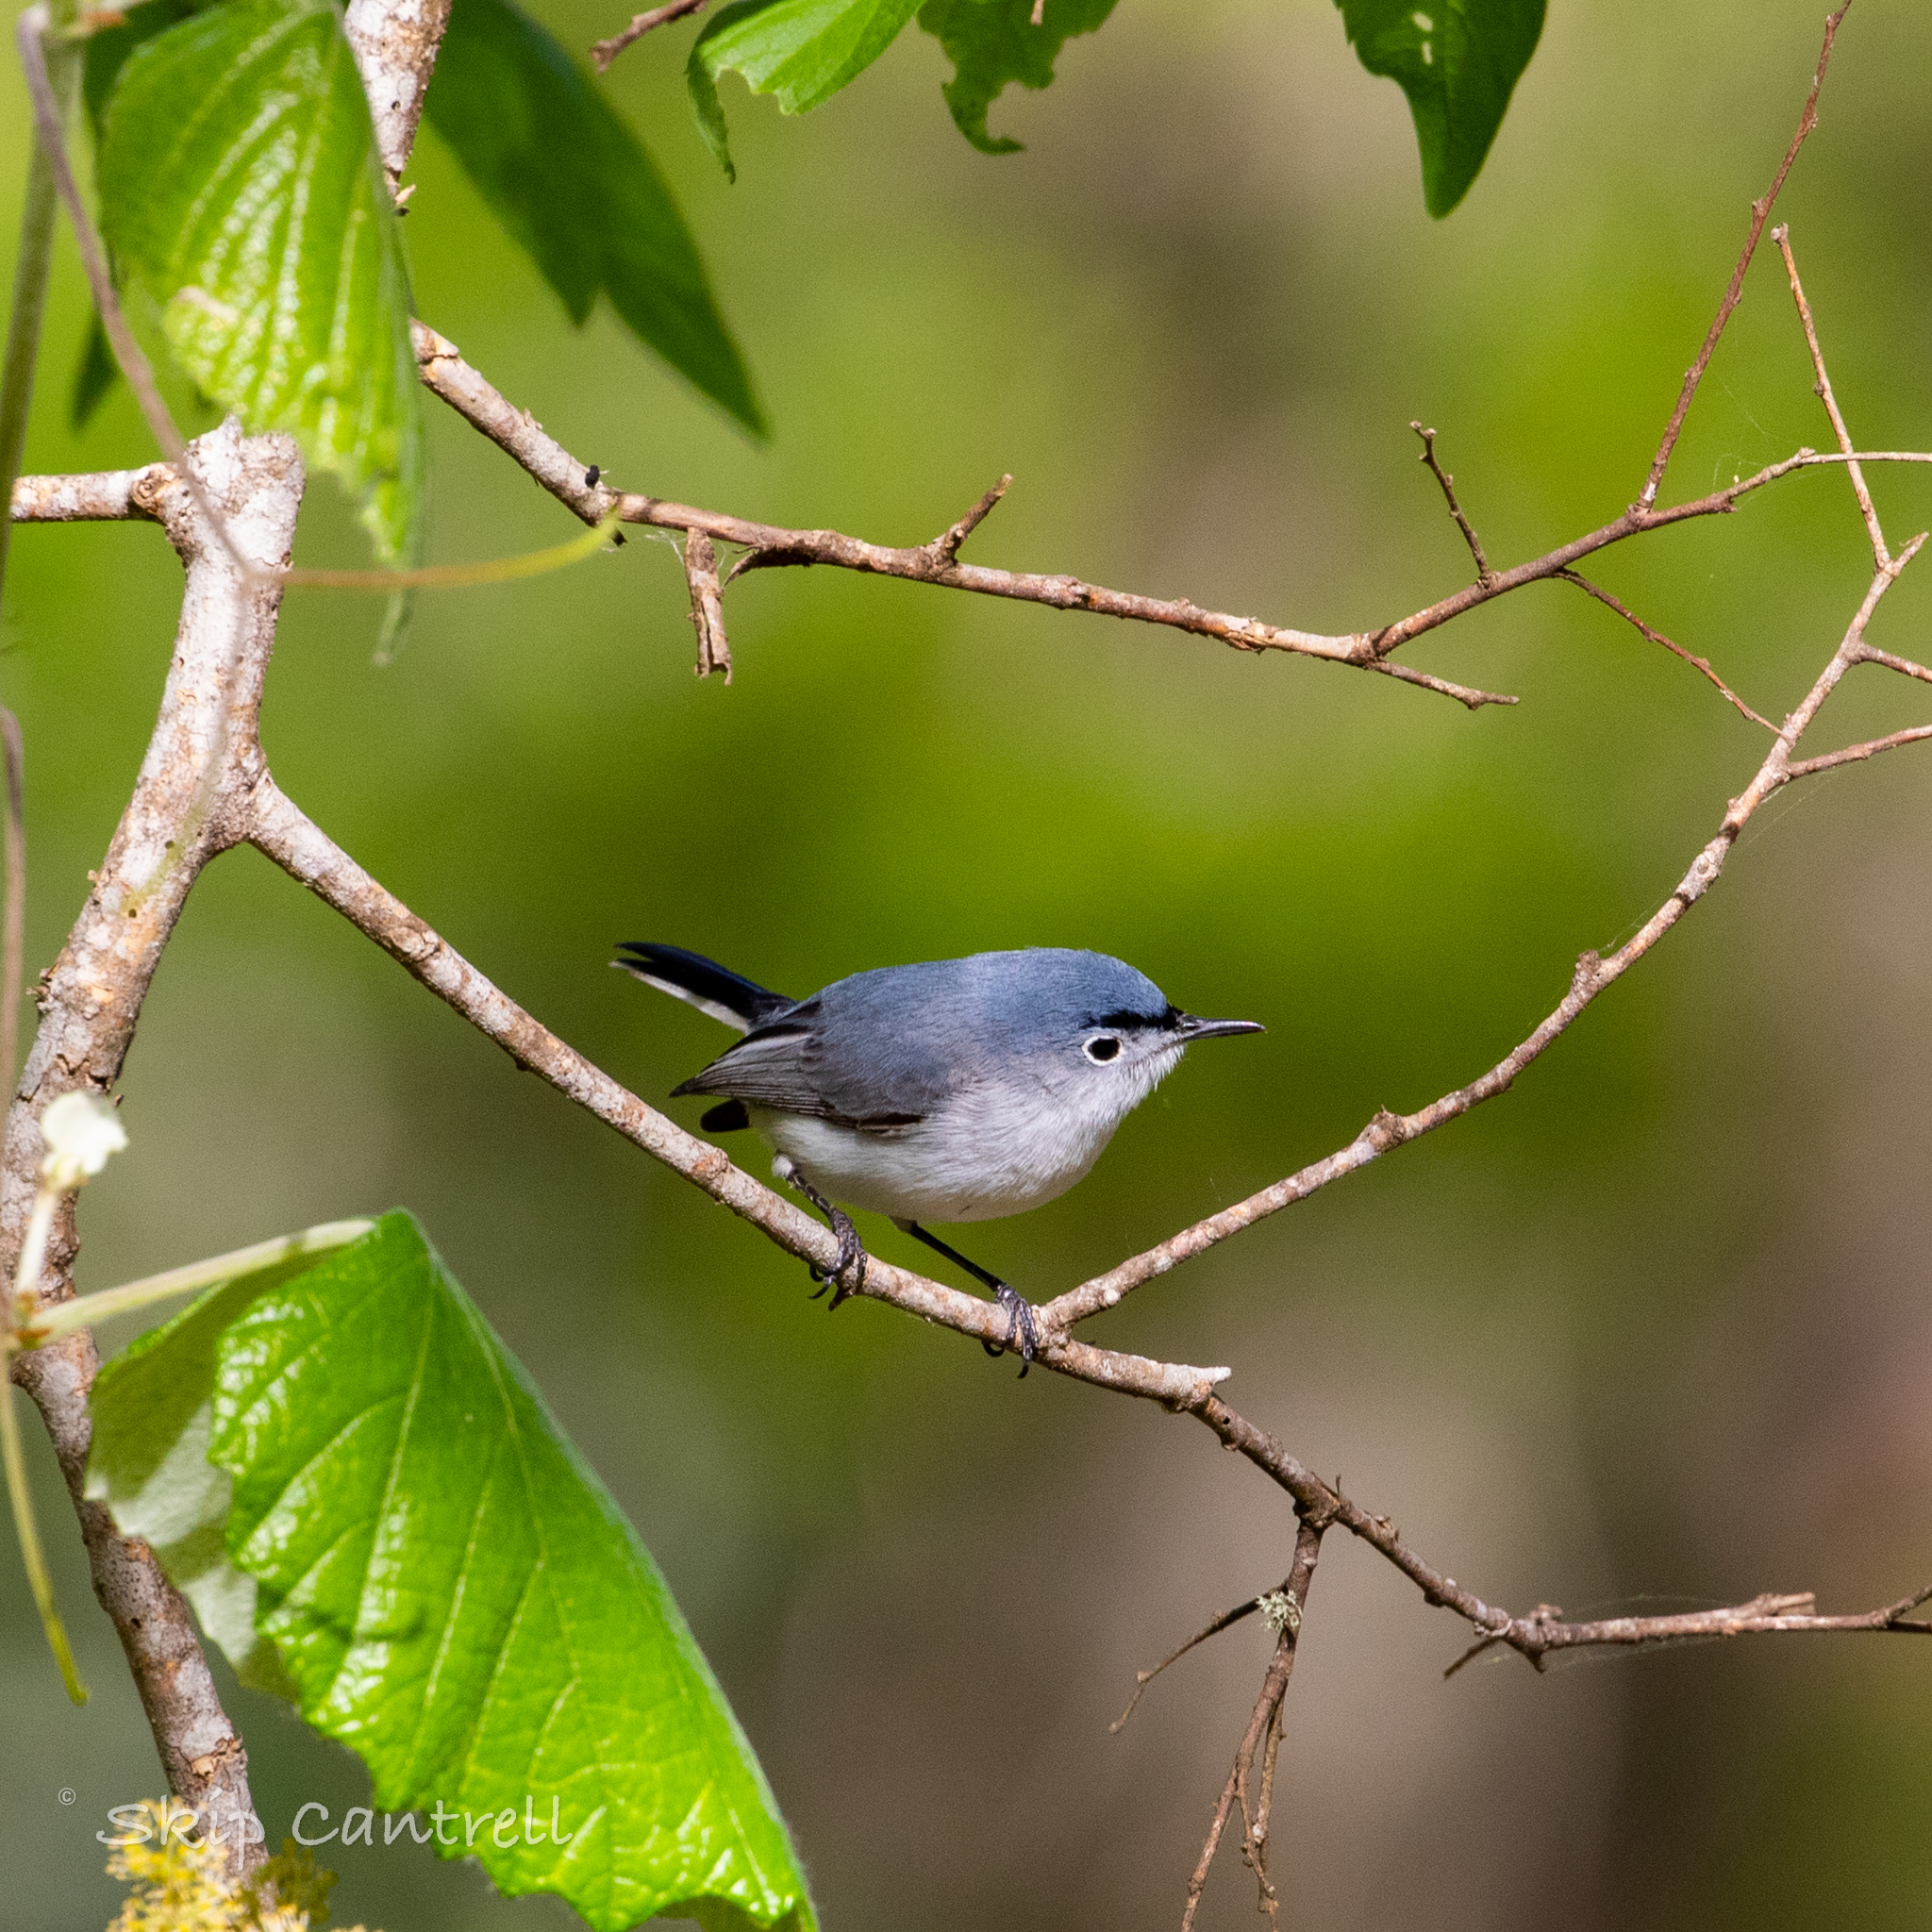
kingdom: Animalia
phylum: Chordata
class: Aves
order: Passeriformes
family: Polioptilidae
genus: Polioptila
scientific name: Polioptila caerulea
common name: Blue-gray gnatcatcher
